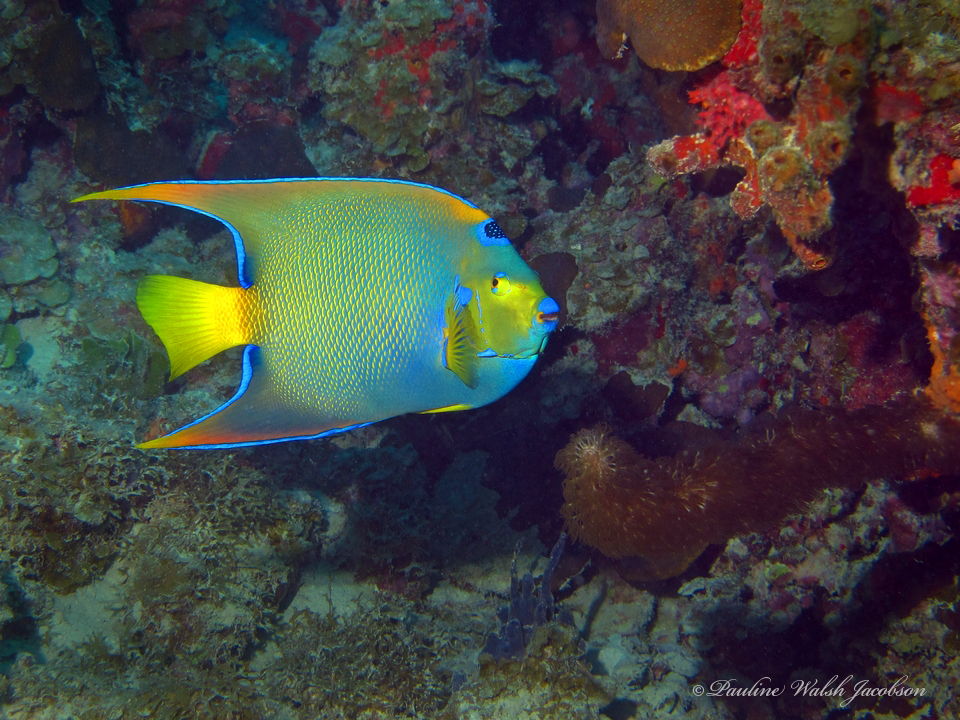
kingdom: Animalia
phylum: Chordata
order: Perciformes
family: Pomacanthidae
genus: Holacanthus
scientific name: Holacanthus ciliaris
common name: Queen angelfish
